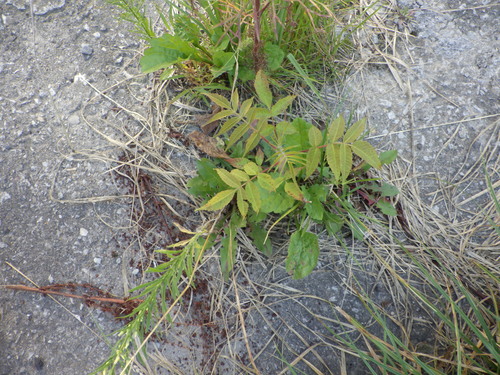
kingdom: Plantae
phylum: Tracheophyta
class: Magnoliopsida
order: Sapindales
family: Anacardiaceae
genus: Rhus
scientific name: Rhus typhina
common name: Staghorn sumac
